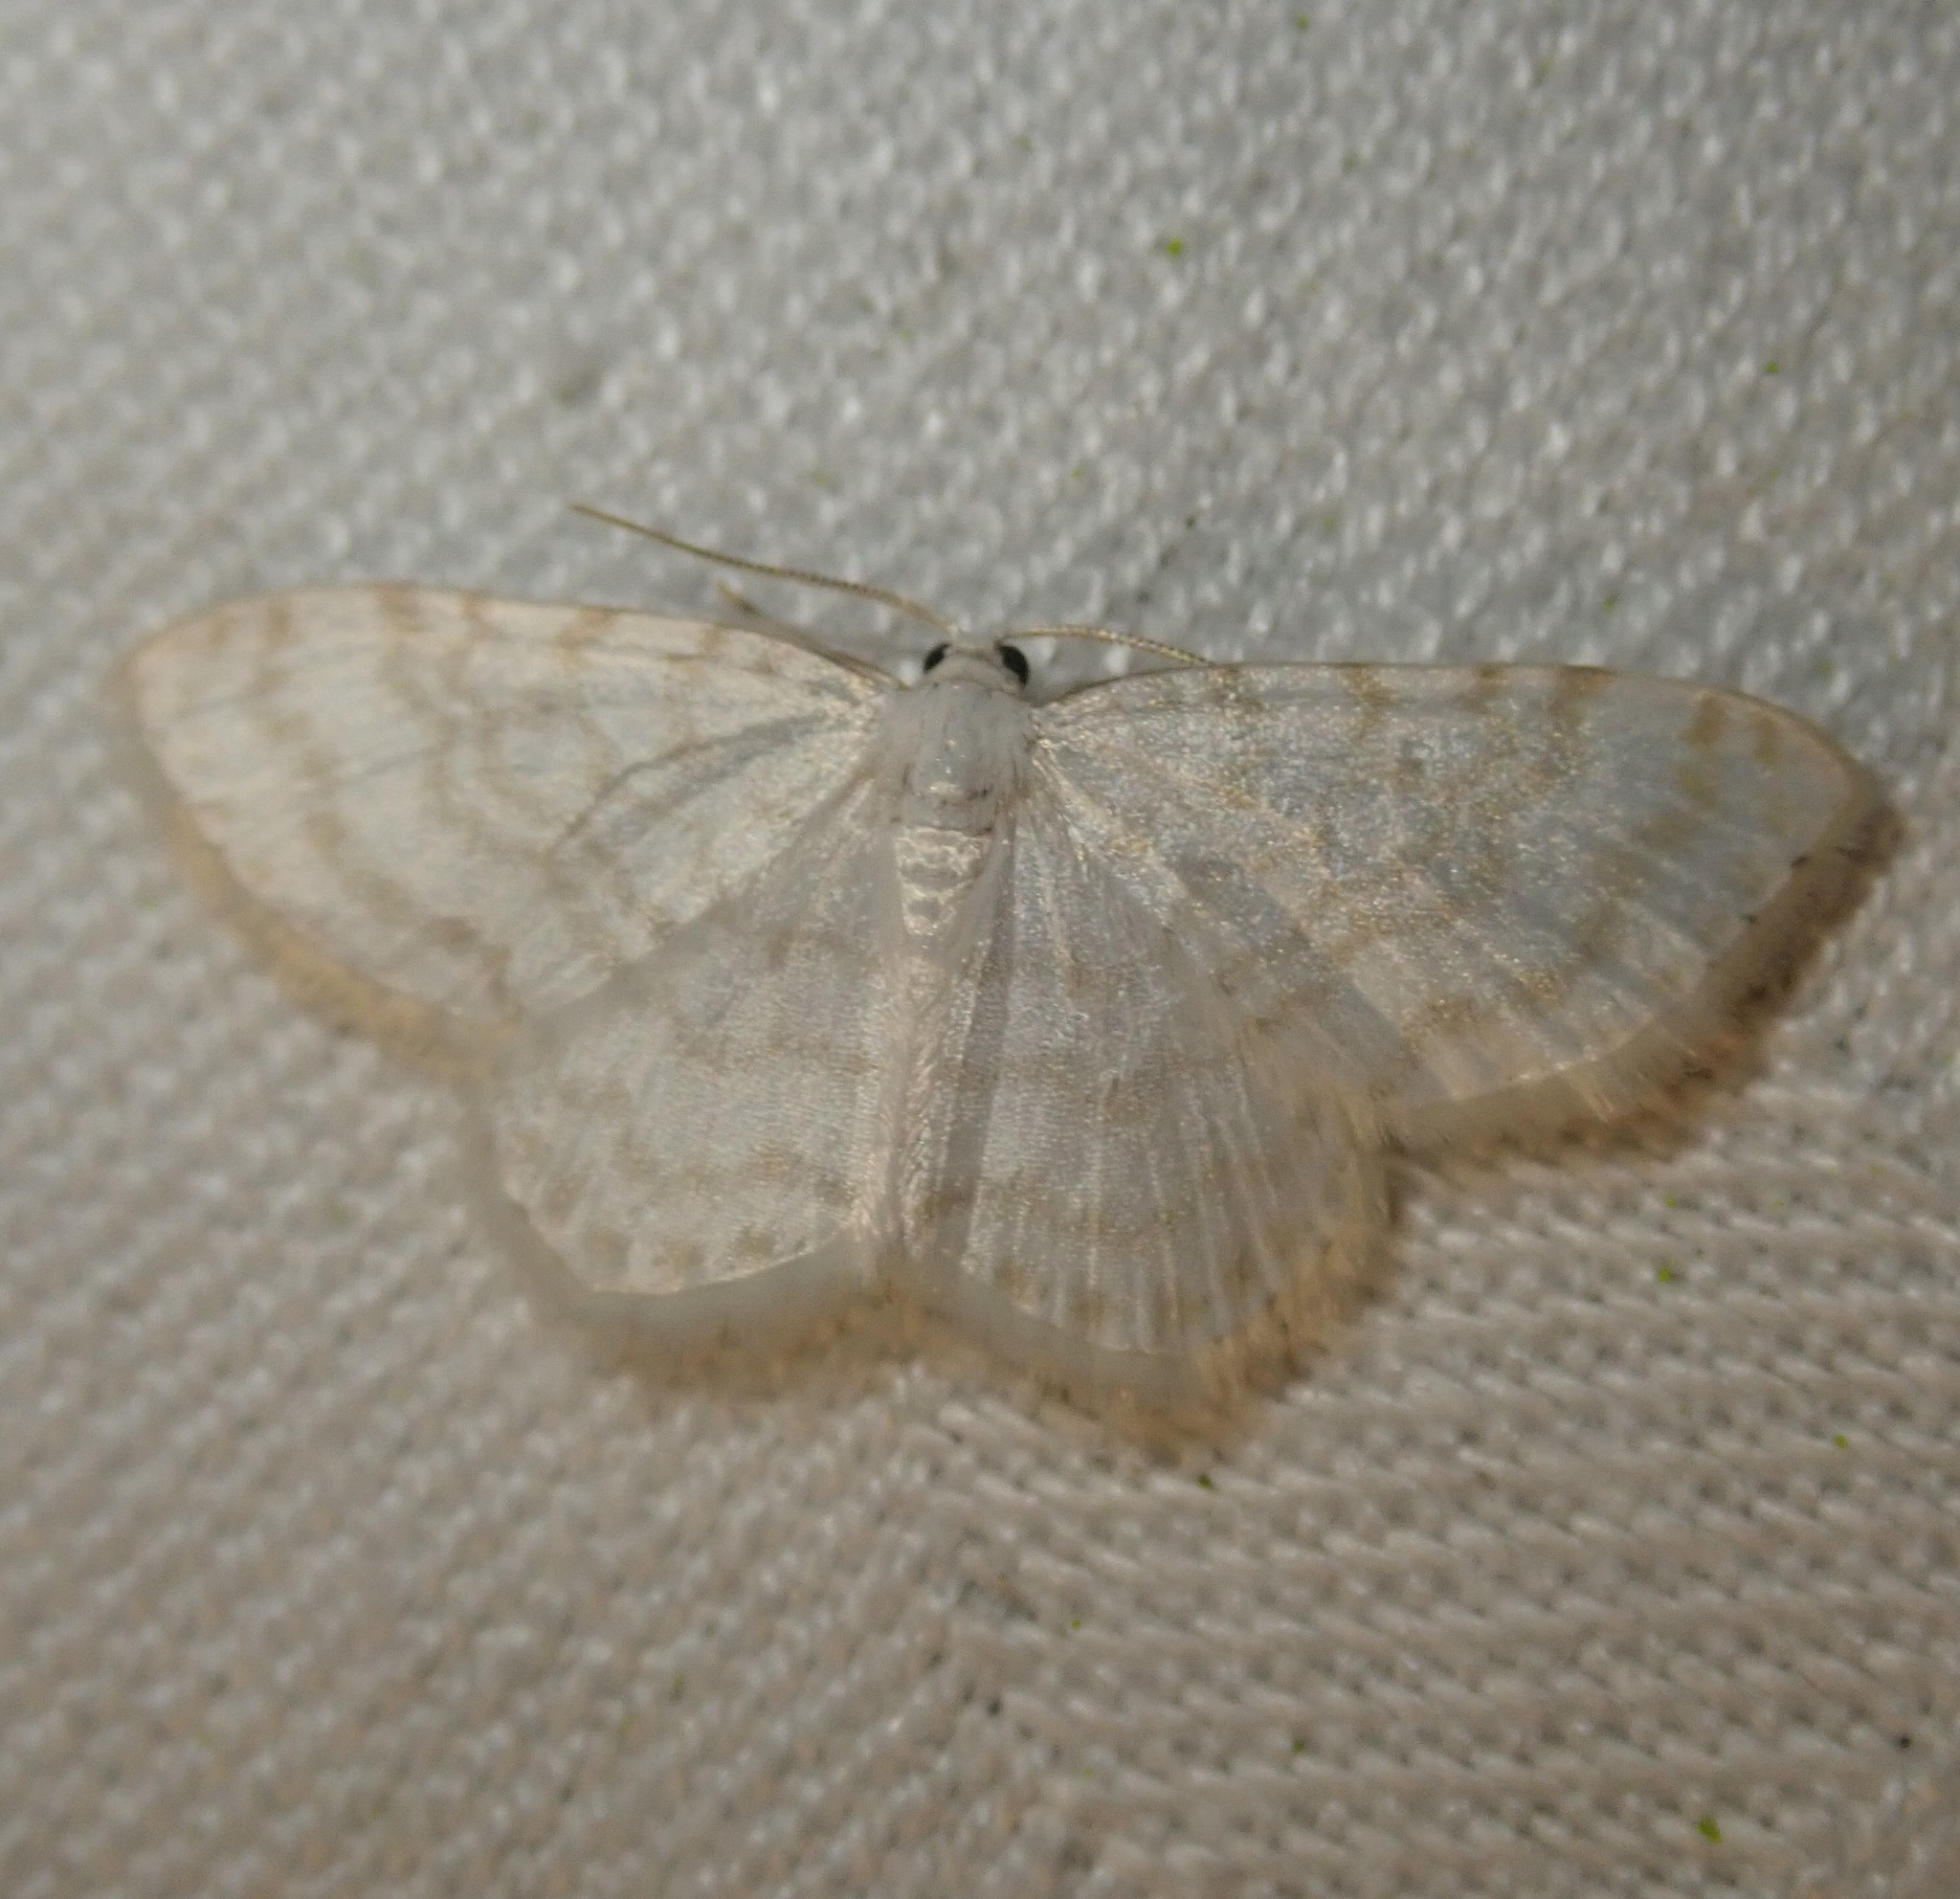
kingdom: Animalia
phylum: Arthropoda
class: Insecta
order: Lepidoptera
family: Geometridae
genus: Asthena
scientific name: Asthena albulata
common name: Small white wave
